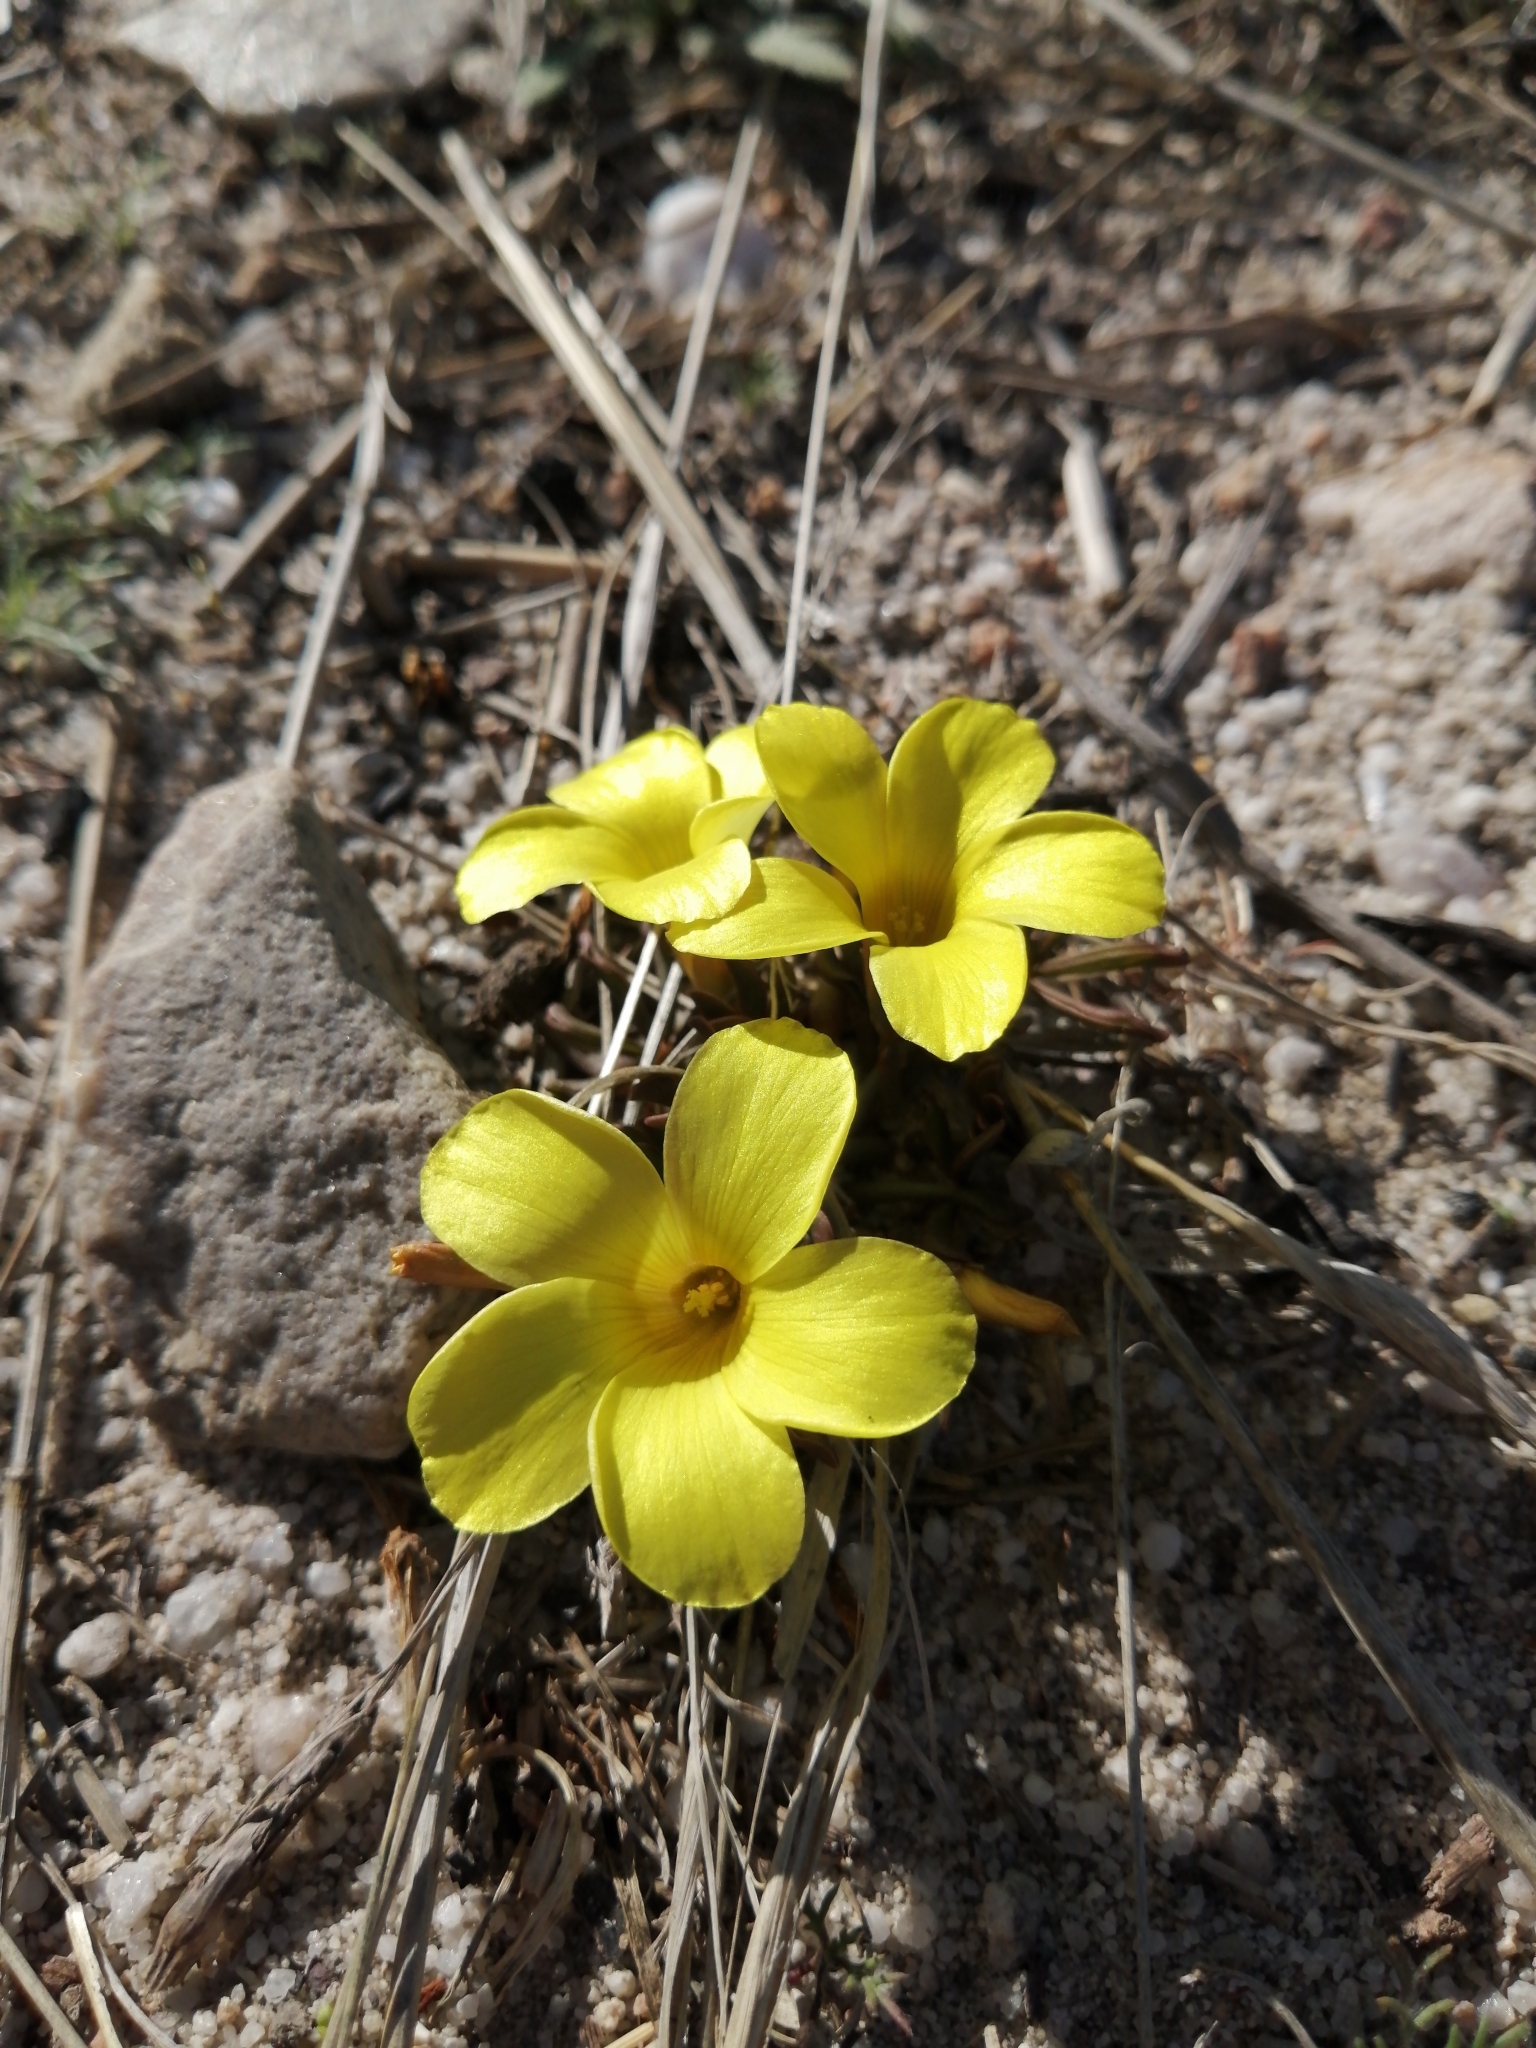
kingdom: Plantae
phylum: Tracheophyta
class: Magnoliopsida
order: Oxalidales
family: Oxalidaceae
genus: Oxalis
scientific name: Oxalis flava
